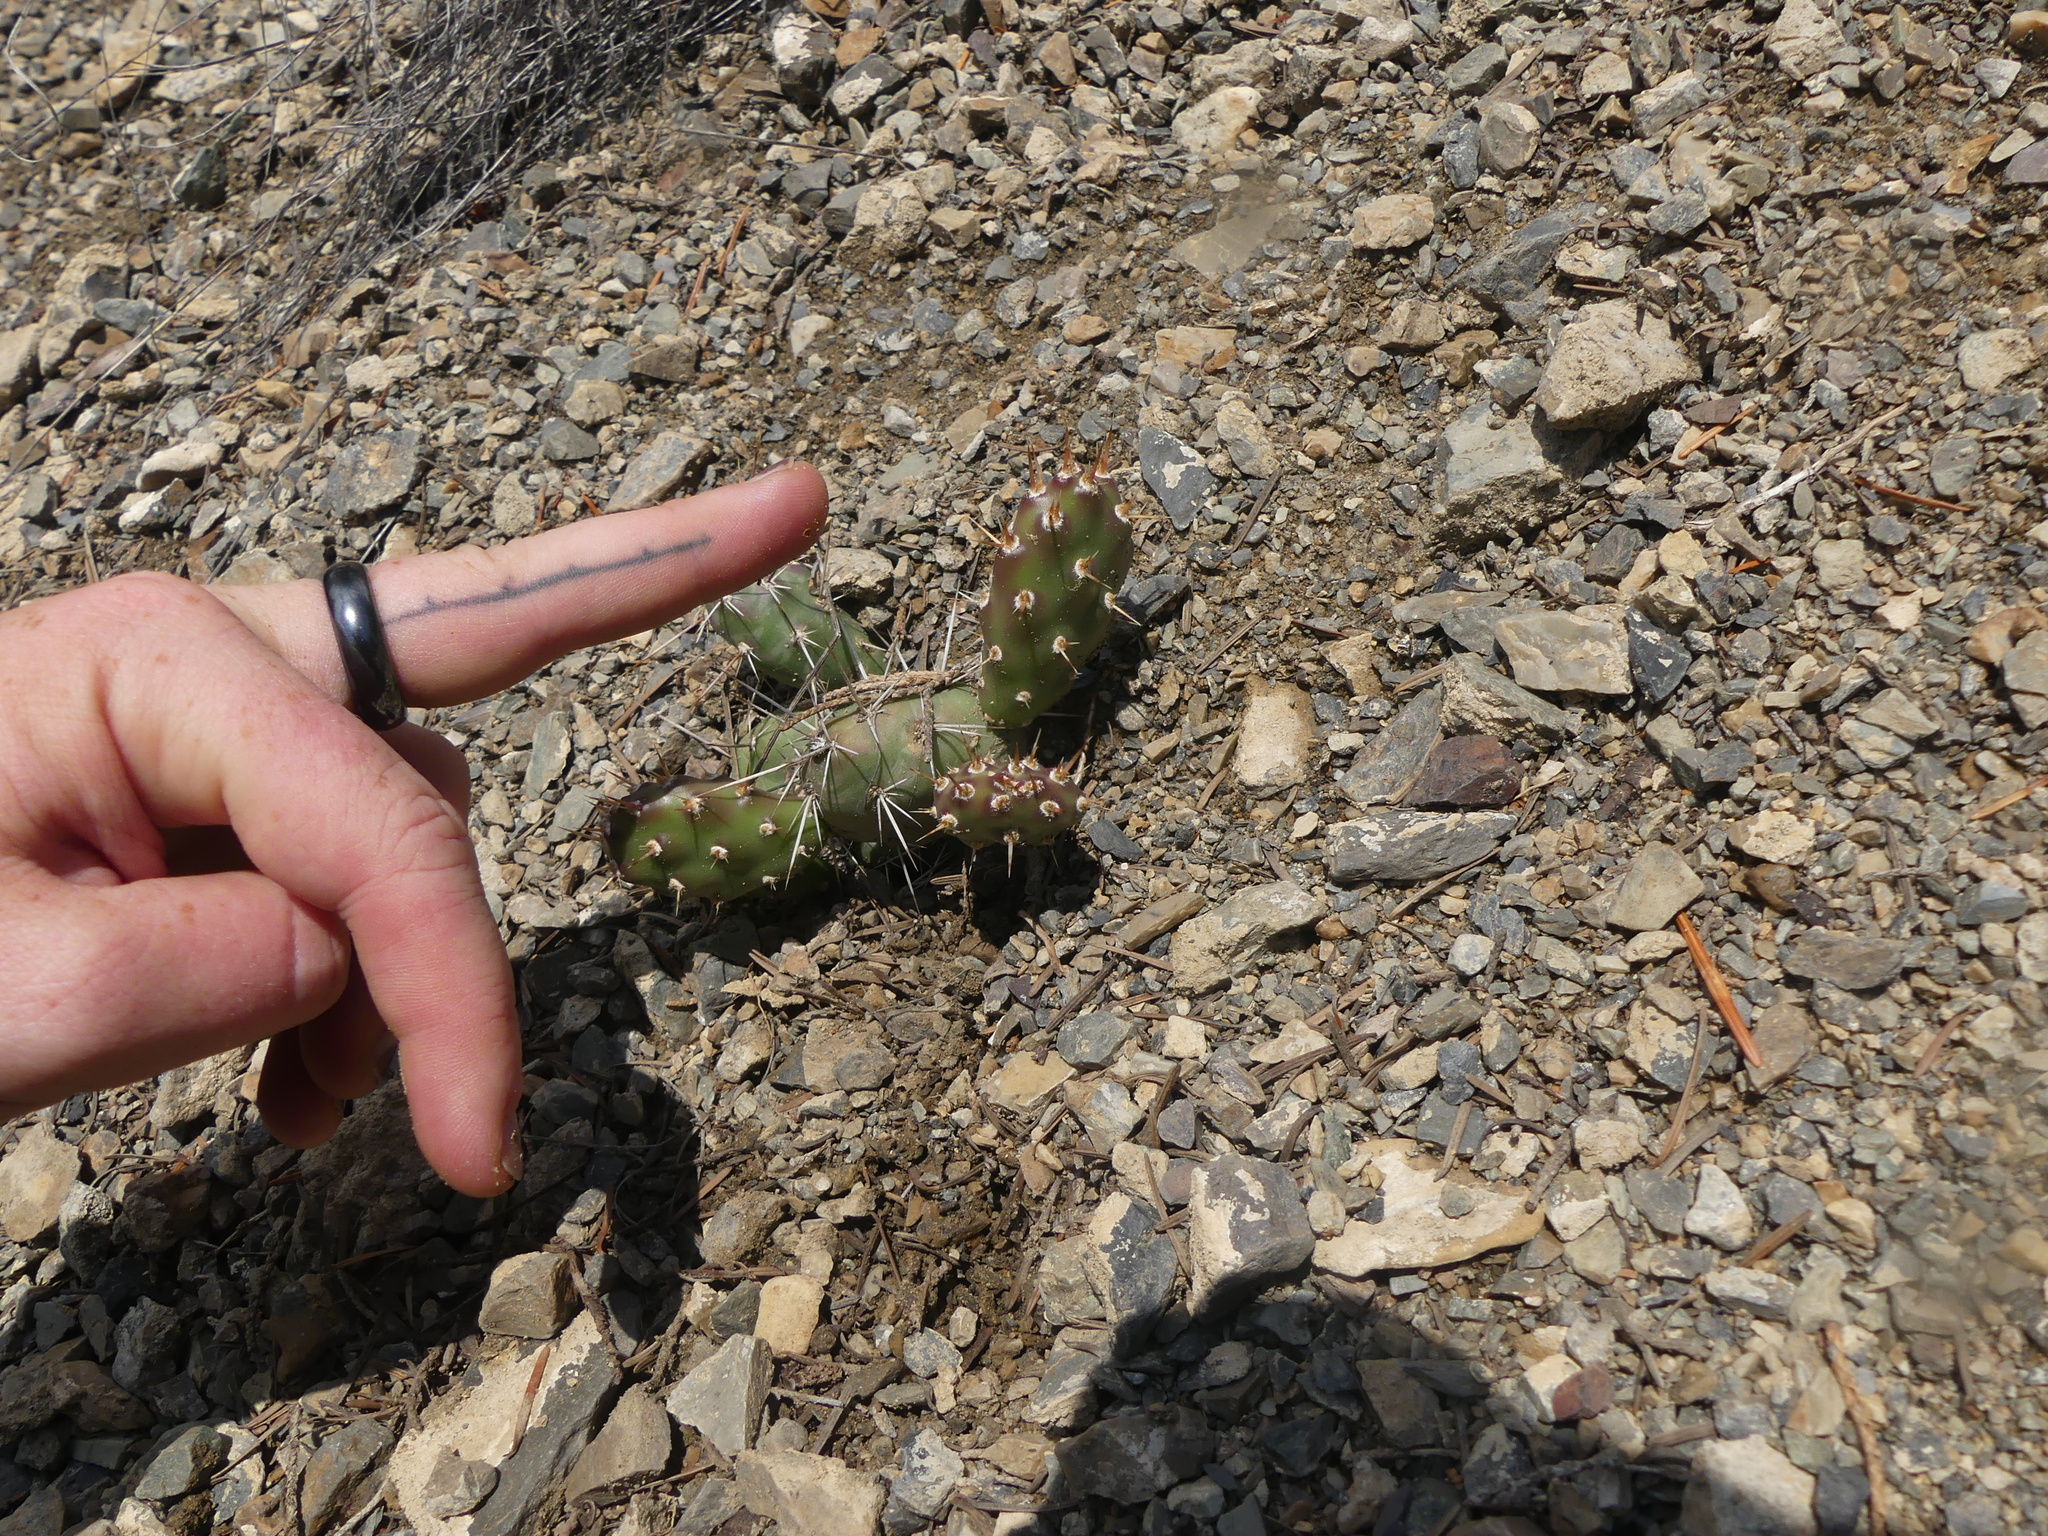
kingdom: Plantae
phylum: Tracheophyta
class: Magnoliopsida
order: Caryophyllales
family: Cactaceae
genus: Opuntia
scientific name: Opuntia fragilis
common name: Brittle cactus
